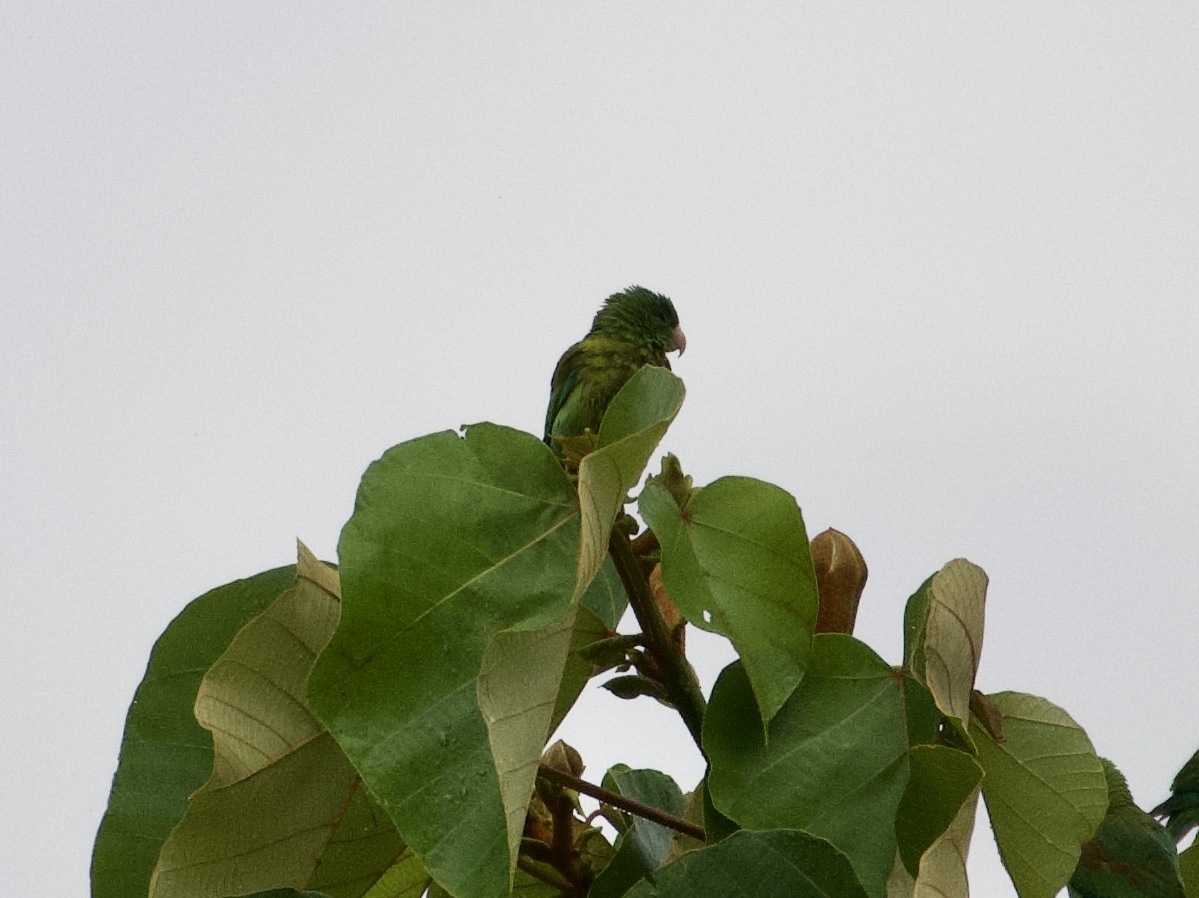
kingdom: Animalia
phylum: Chordata
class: Aves
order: Psittaciformes
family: Psittacidae
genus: Brotogeris
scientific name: Brotogeris jugularis
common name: Orange-chinned parakeet
